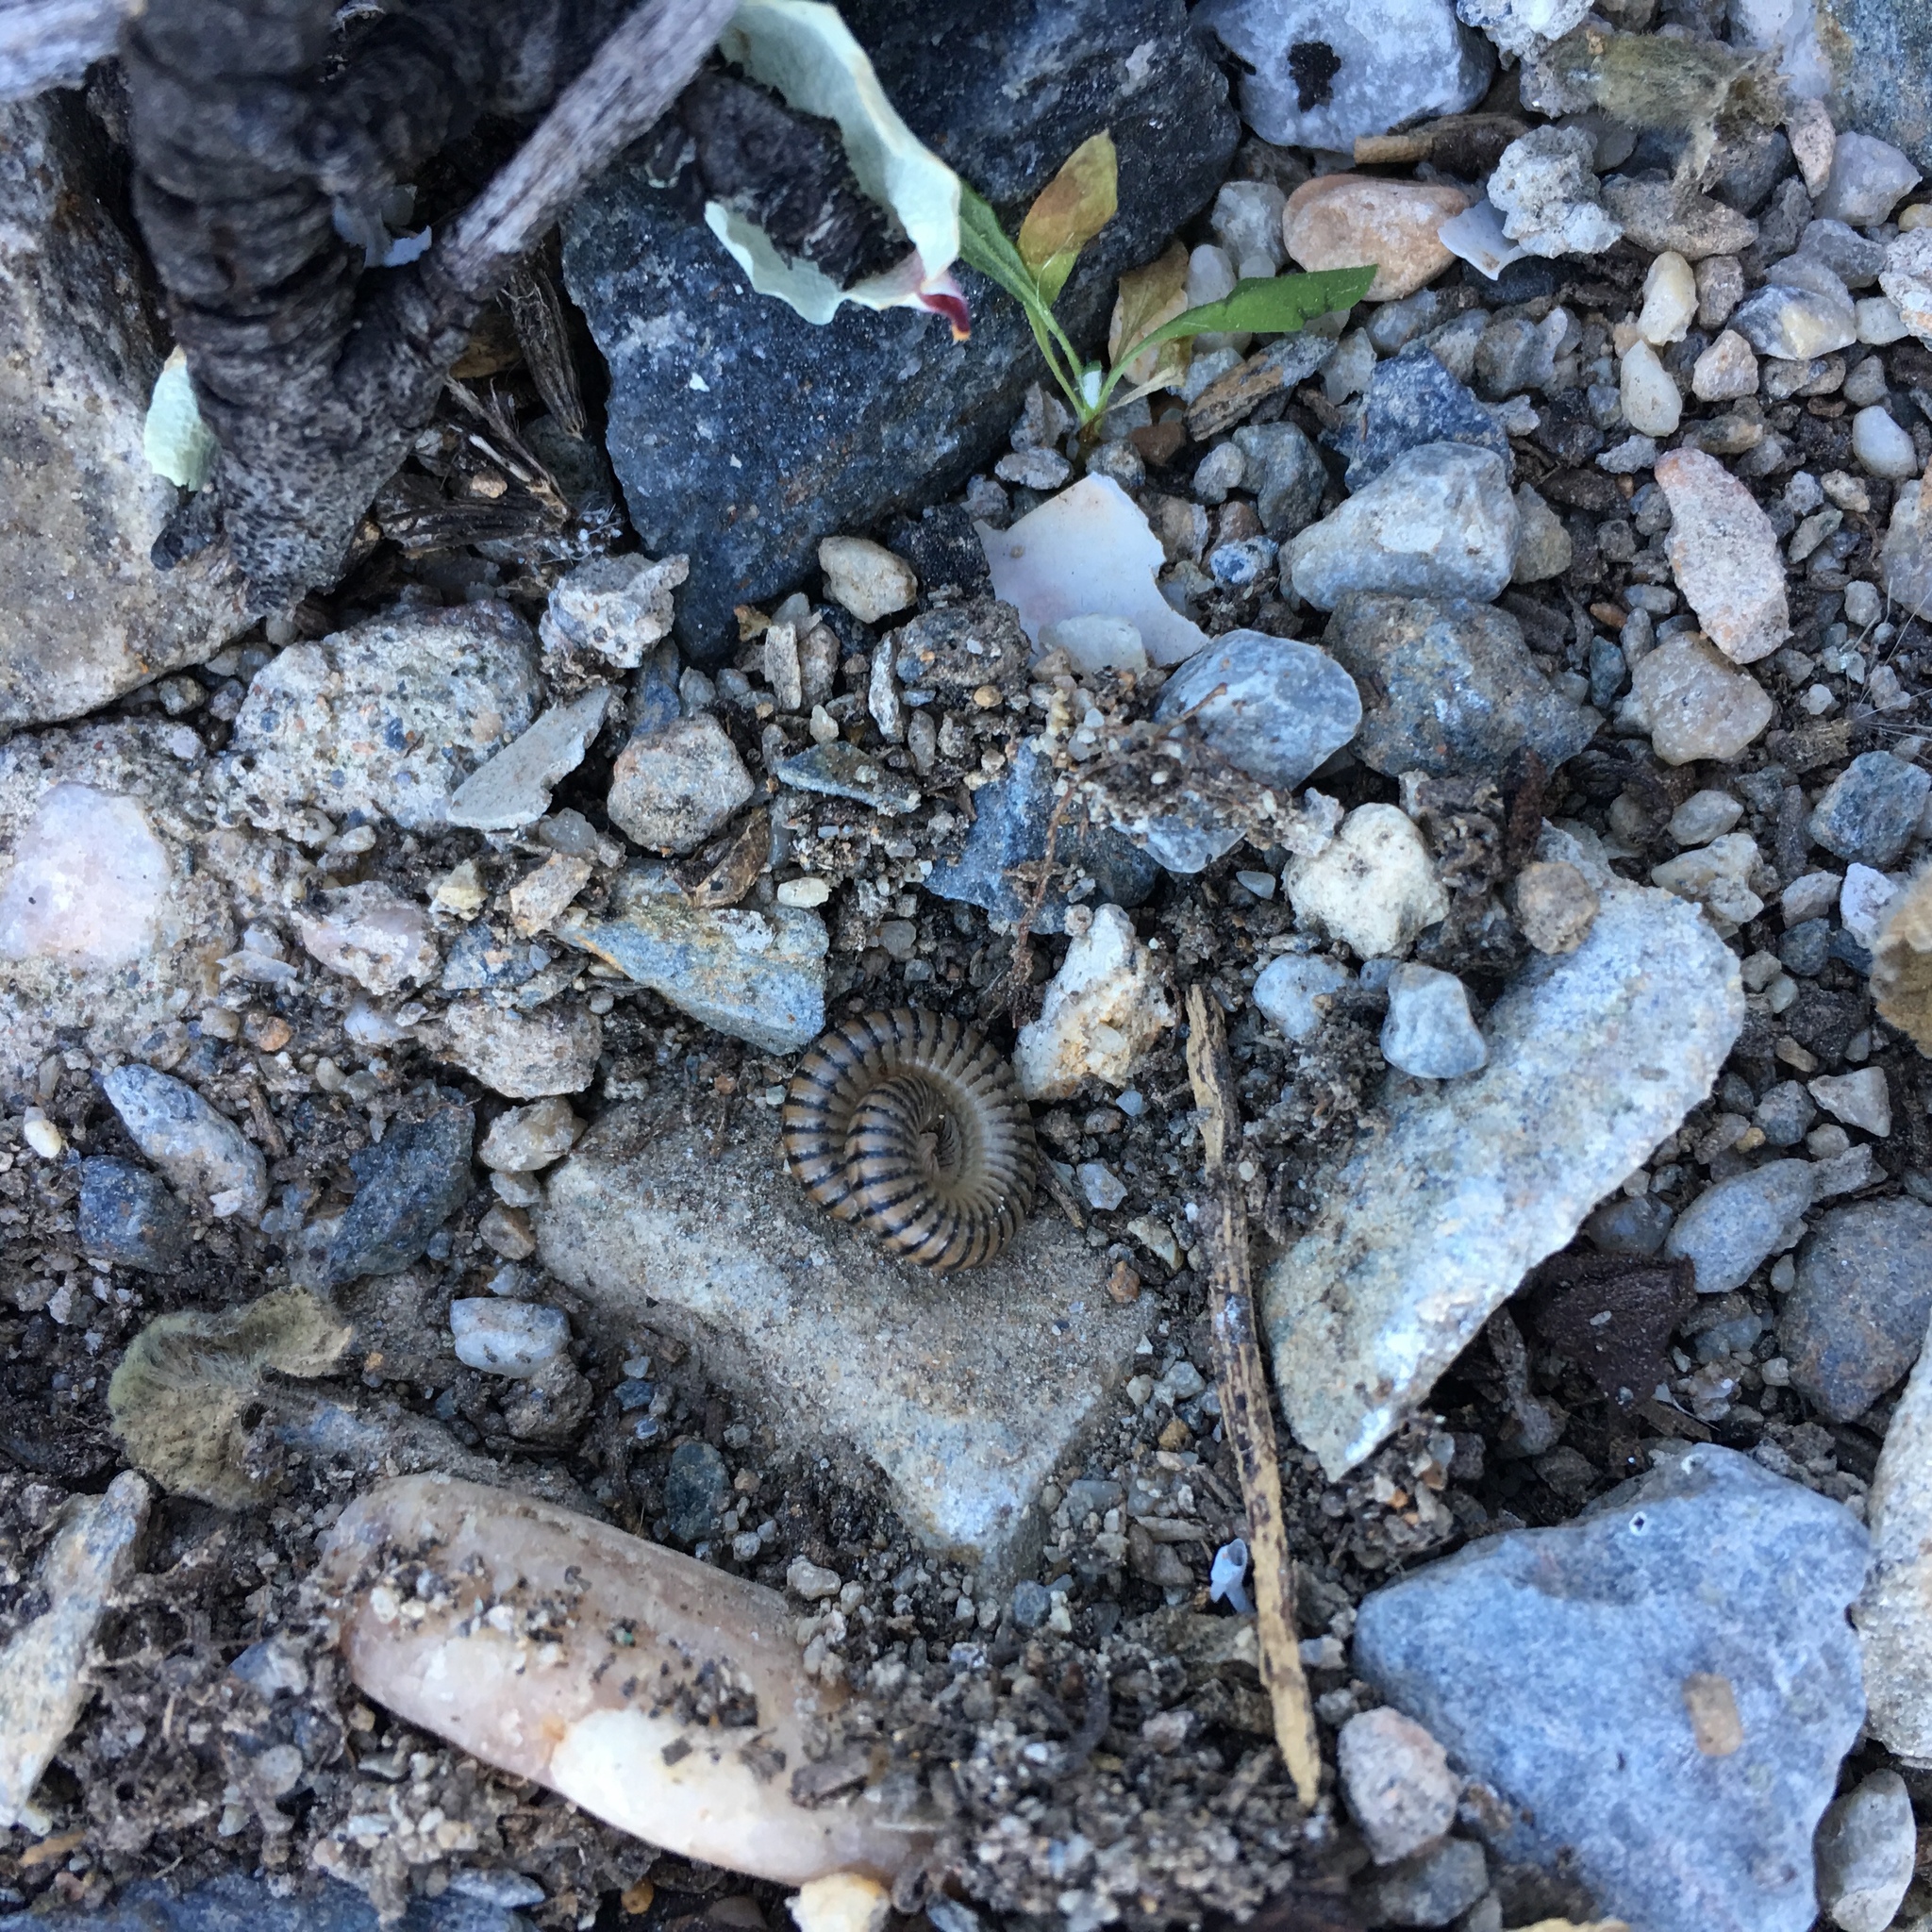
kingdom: Animalia
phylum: Arthropoda
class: Diplopoda
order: Julida
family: Julidae
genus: Ommatoiulus
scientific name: Ommatoiulus inconspicuus
